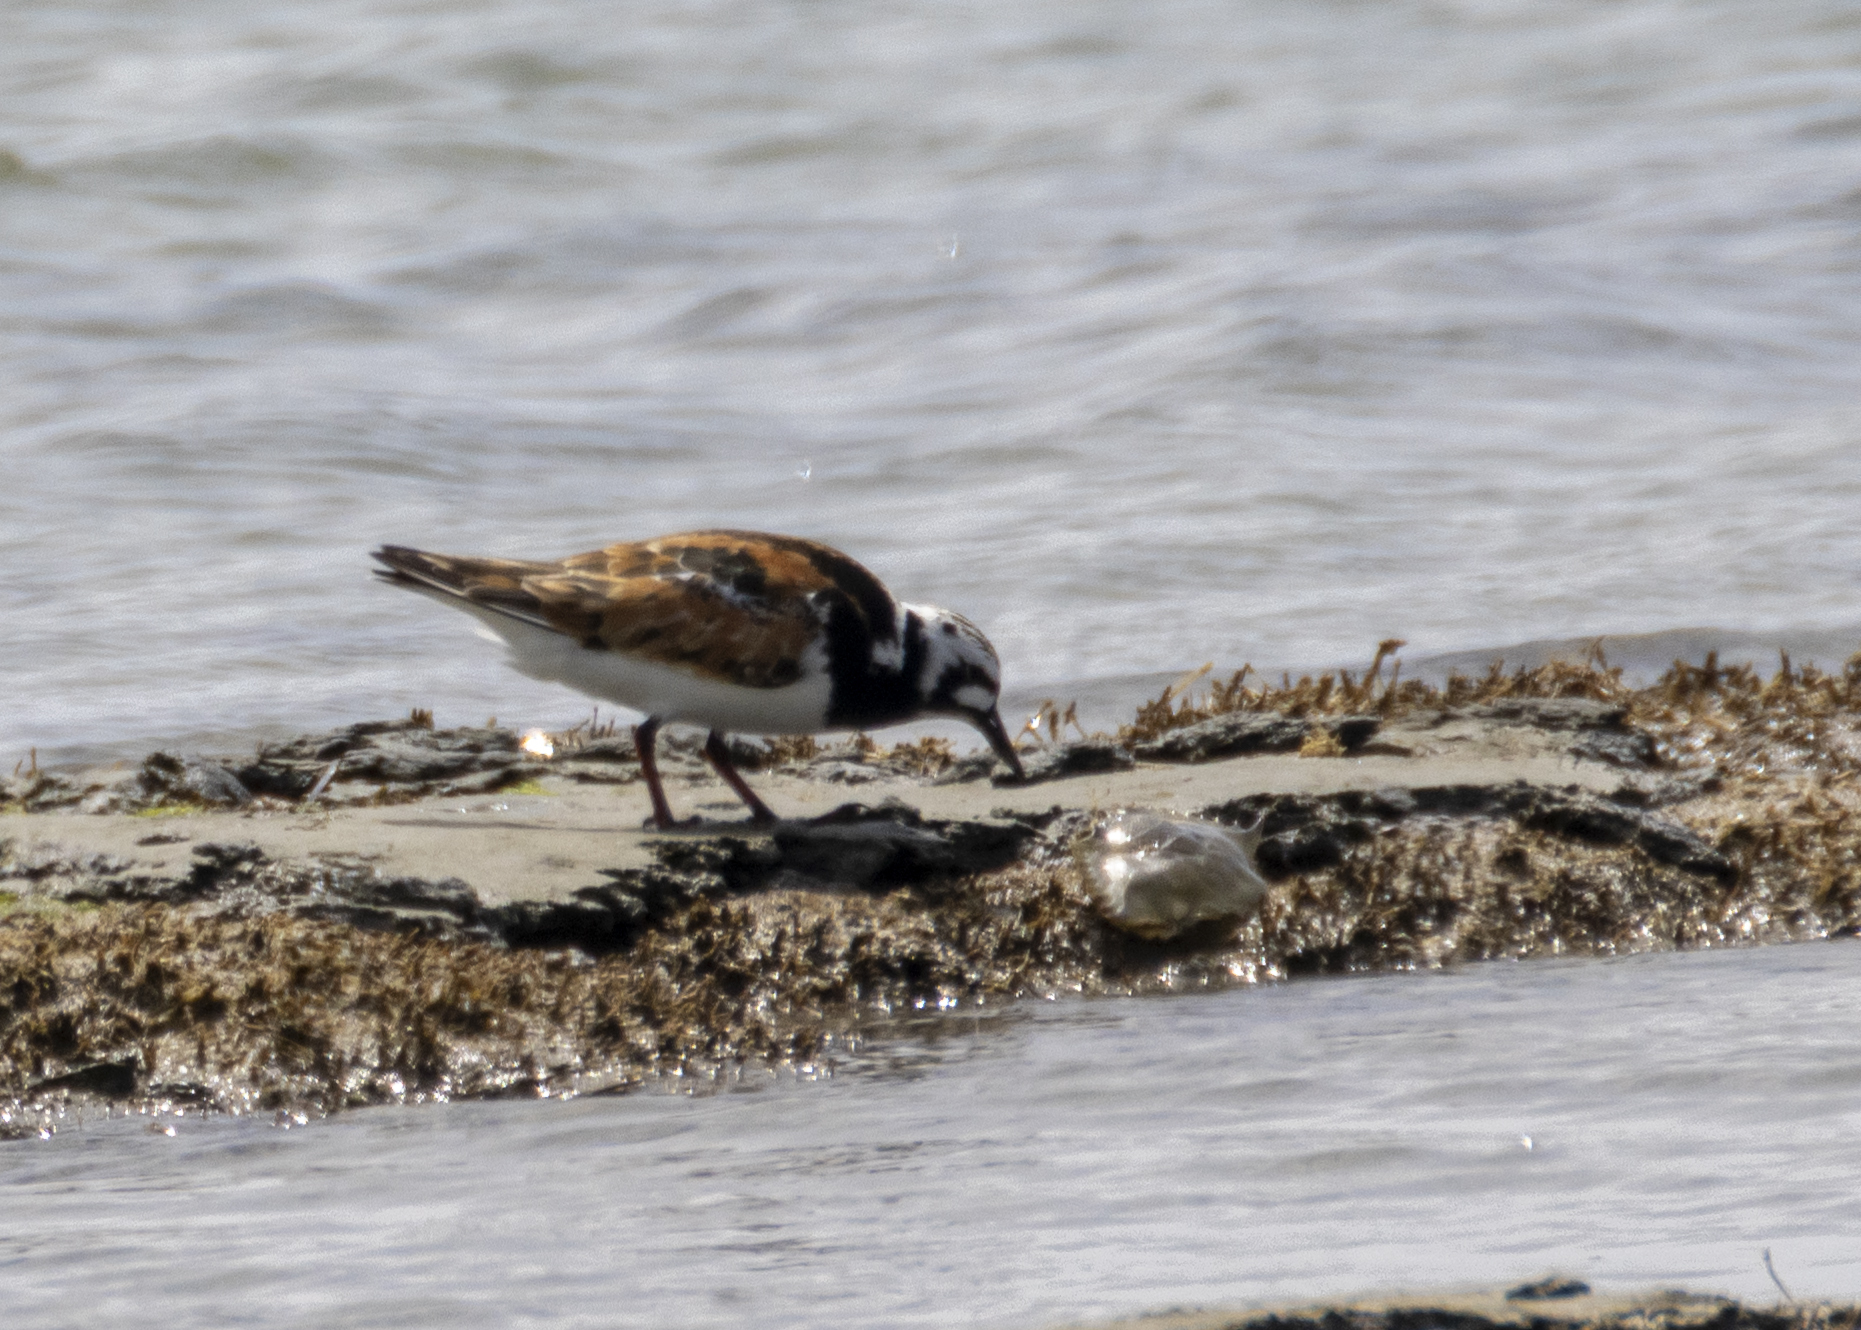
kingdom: Animalia
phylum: Chordata
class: Aves
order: Charadriiformes
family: Scolopacidae
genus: Arenaria
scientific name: Arenaria interpres
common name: Ruddy turnstone
